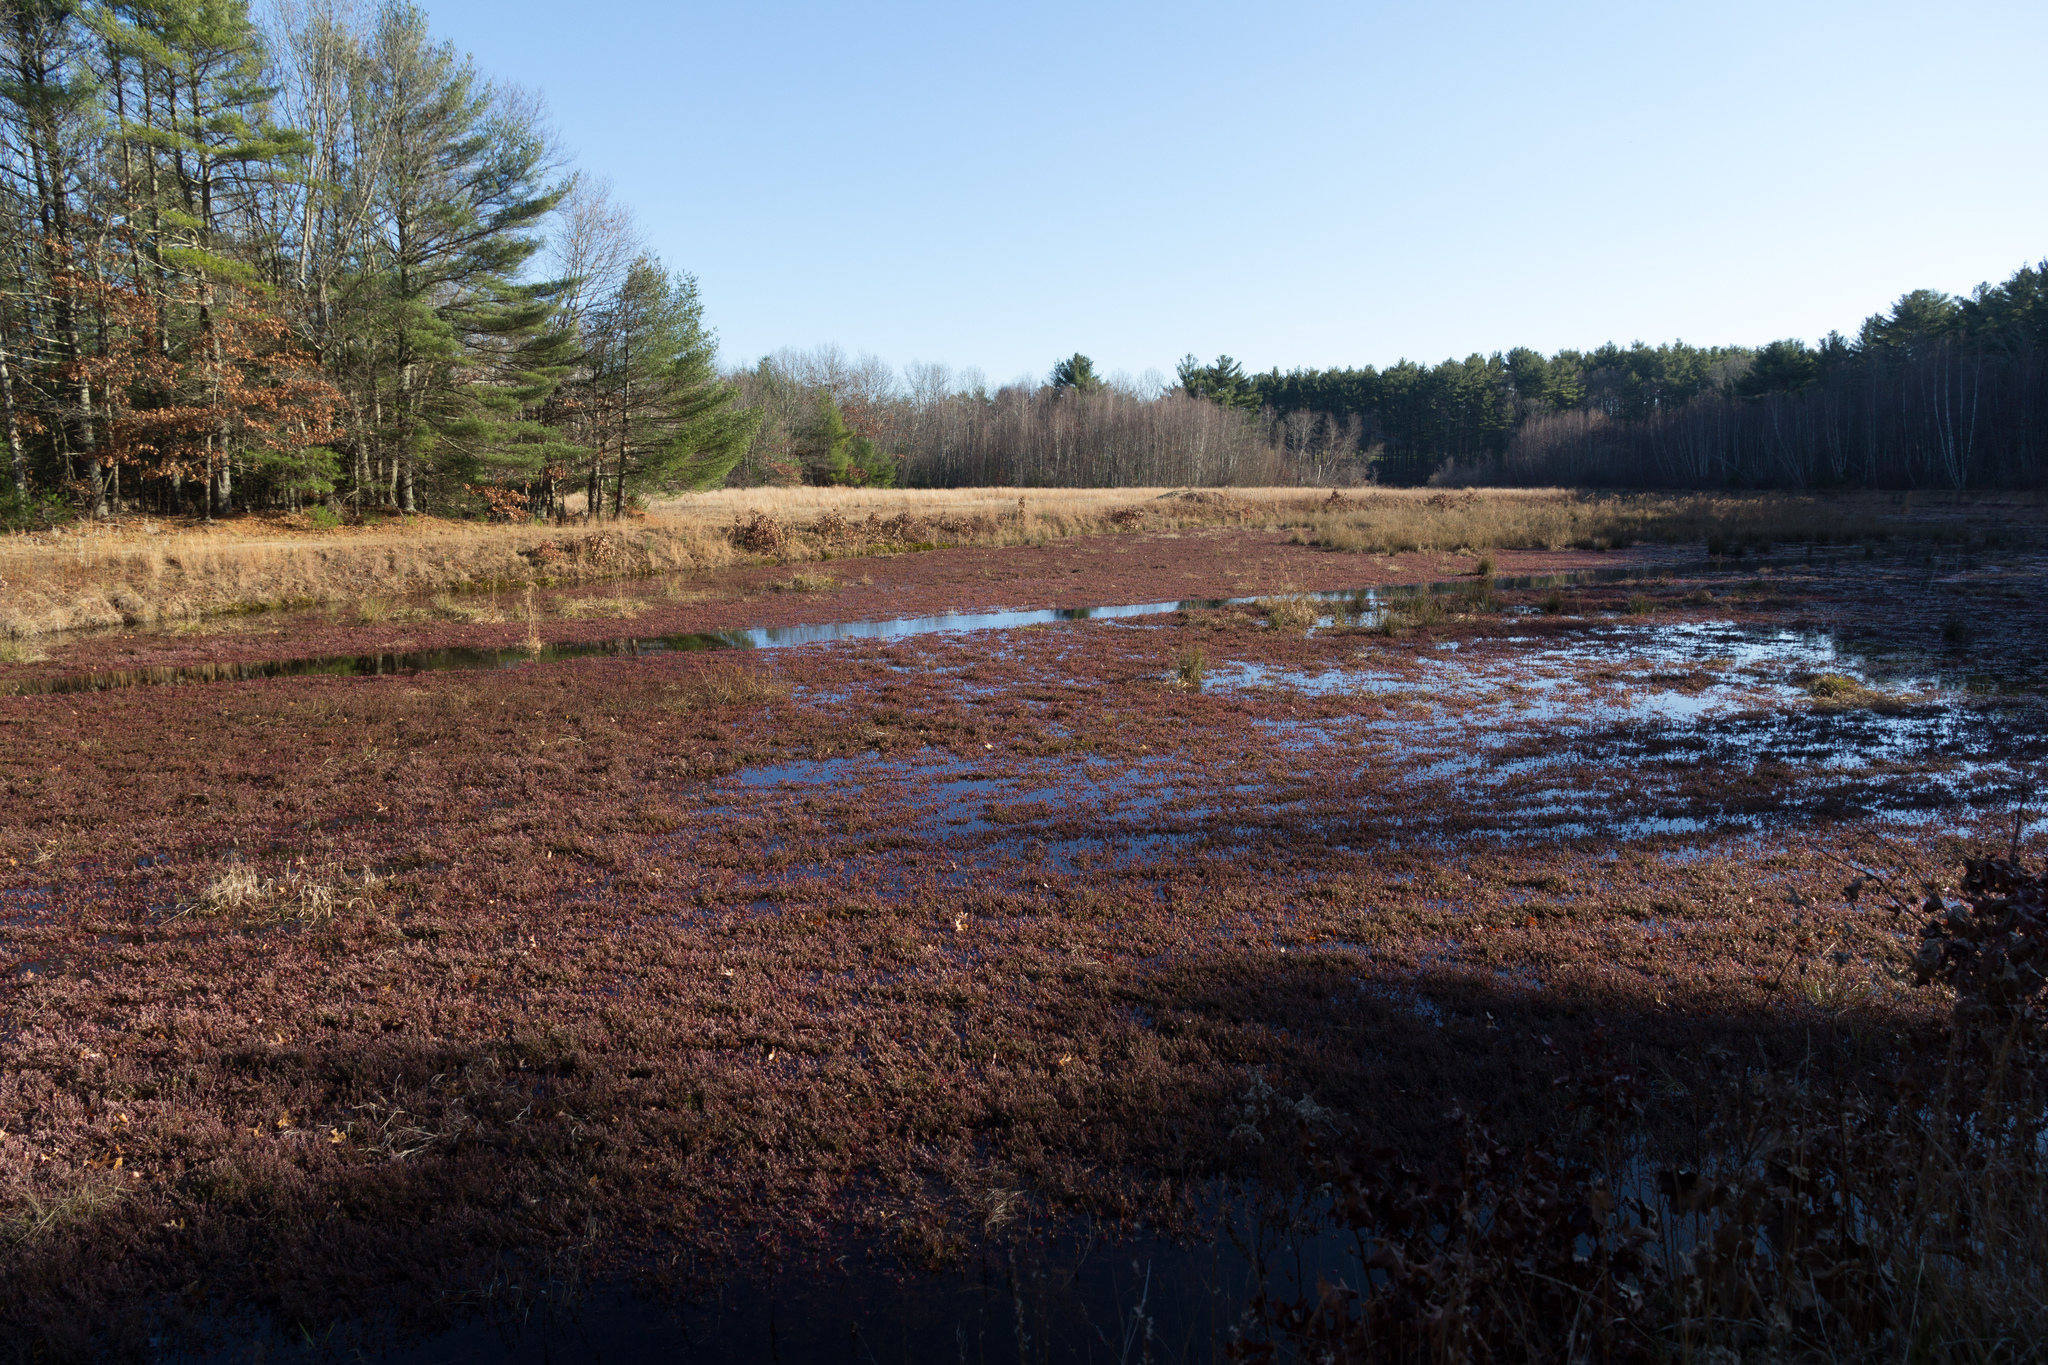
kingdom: Plantae
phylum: Tracheophyta
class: Magnoliopsida
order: Ericales
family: Ericaceae
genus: Vaccinium
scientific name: Vaccinium macrocarpon
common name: American cranberry
